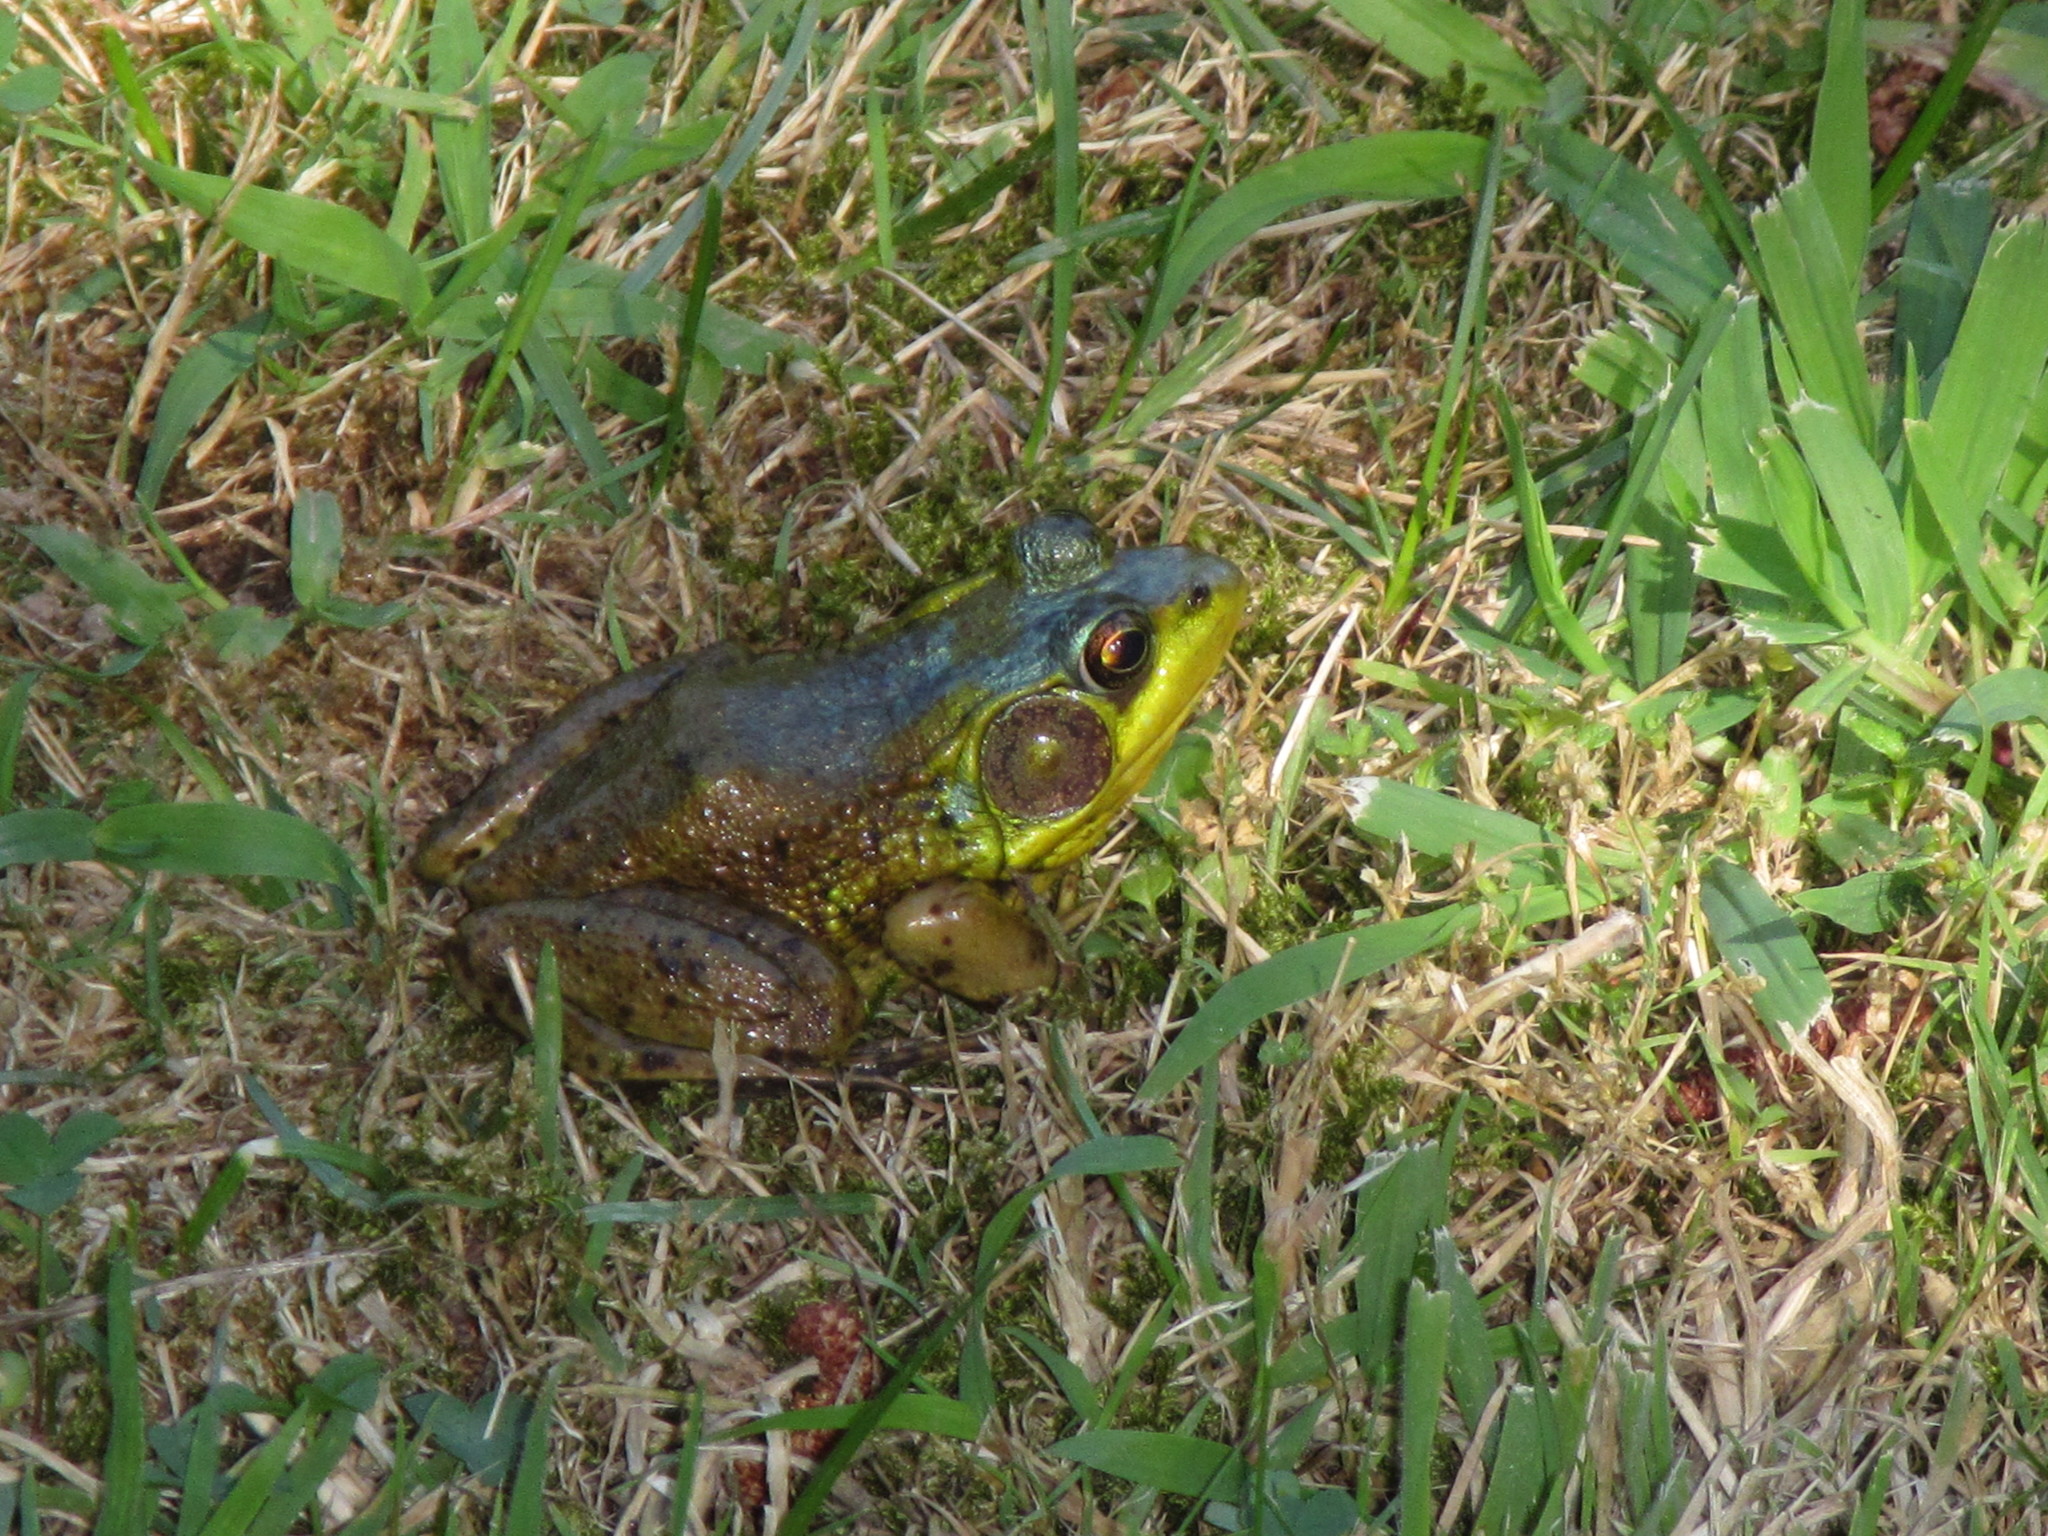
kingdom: Animalia
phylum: Chordata
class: Amphibia
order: Anura
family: Ranidae
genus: Lithobates
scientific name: Lithobates catesbeianus
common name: American bullfrog
